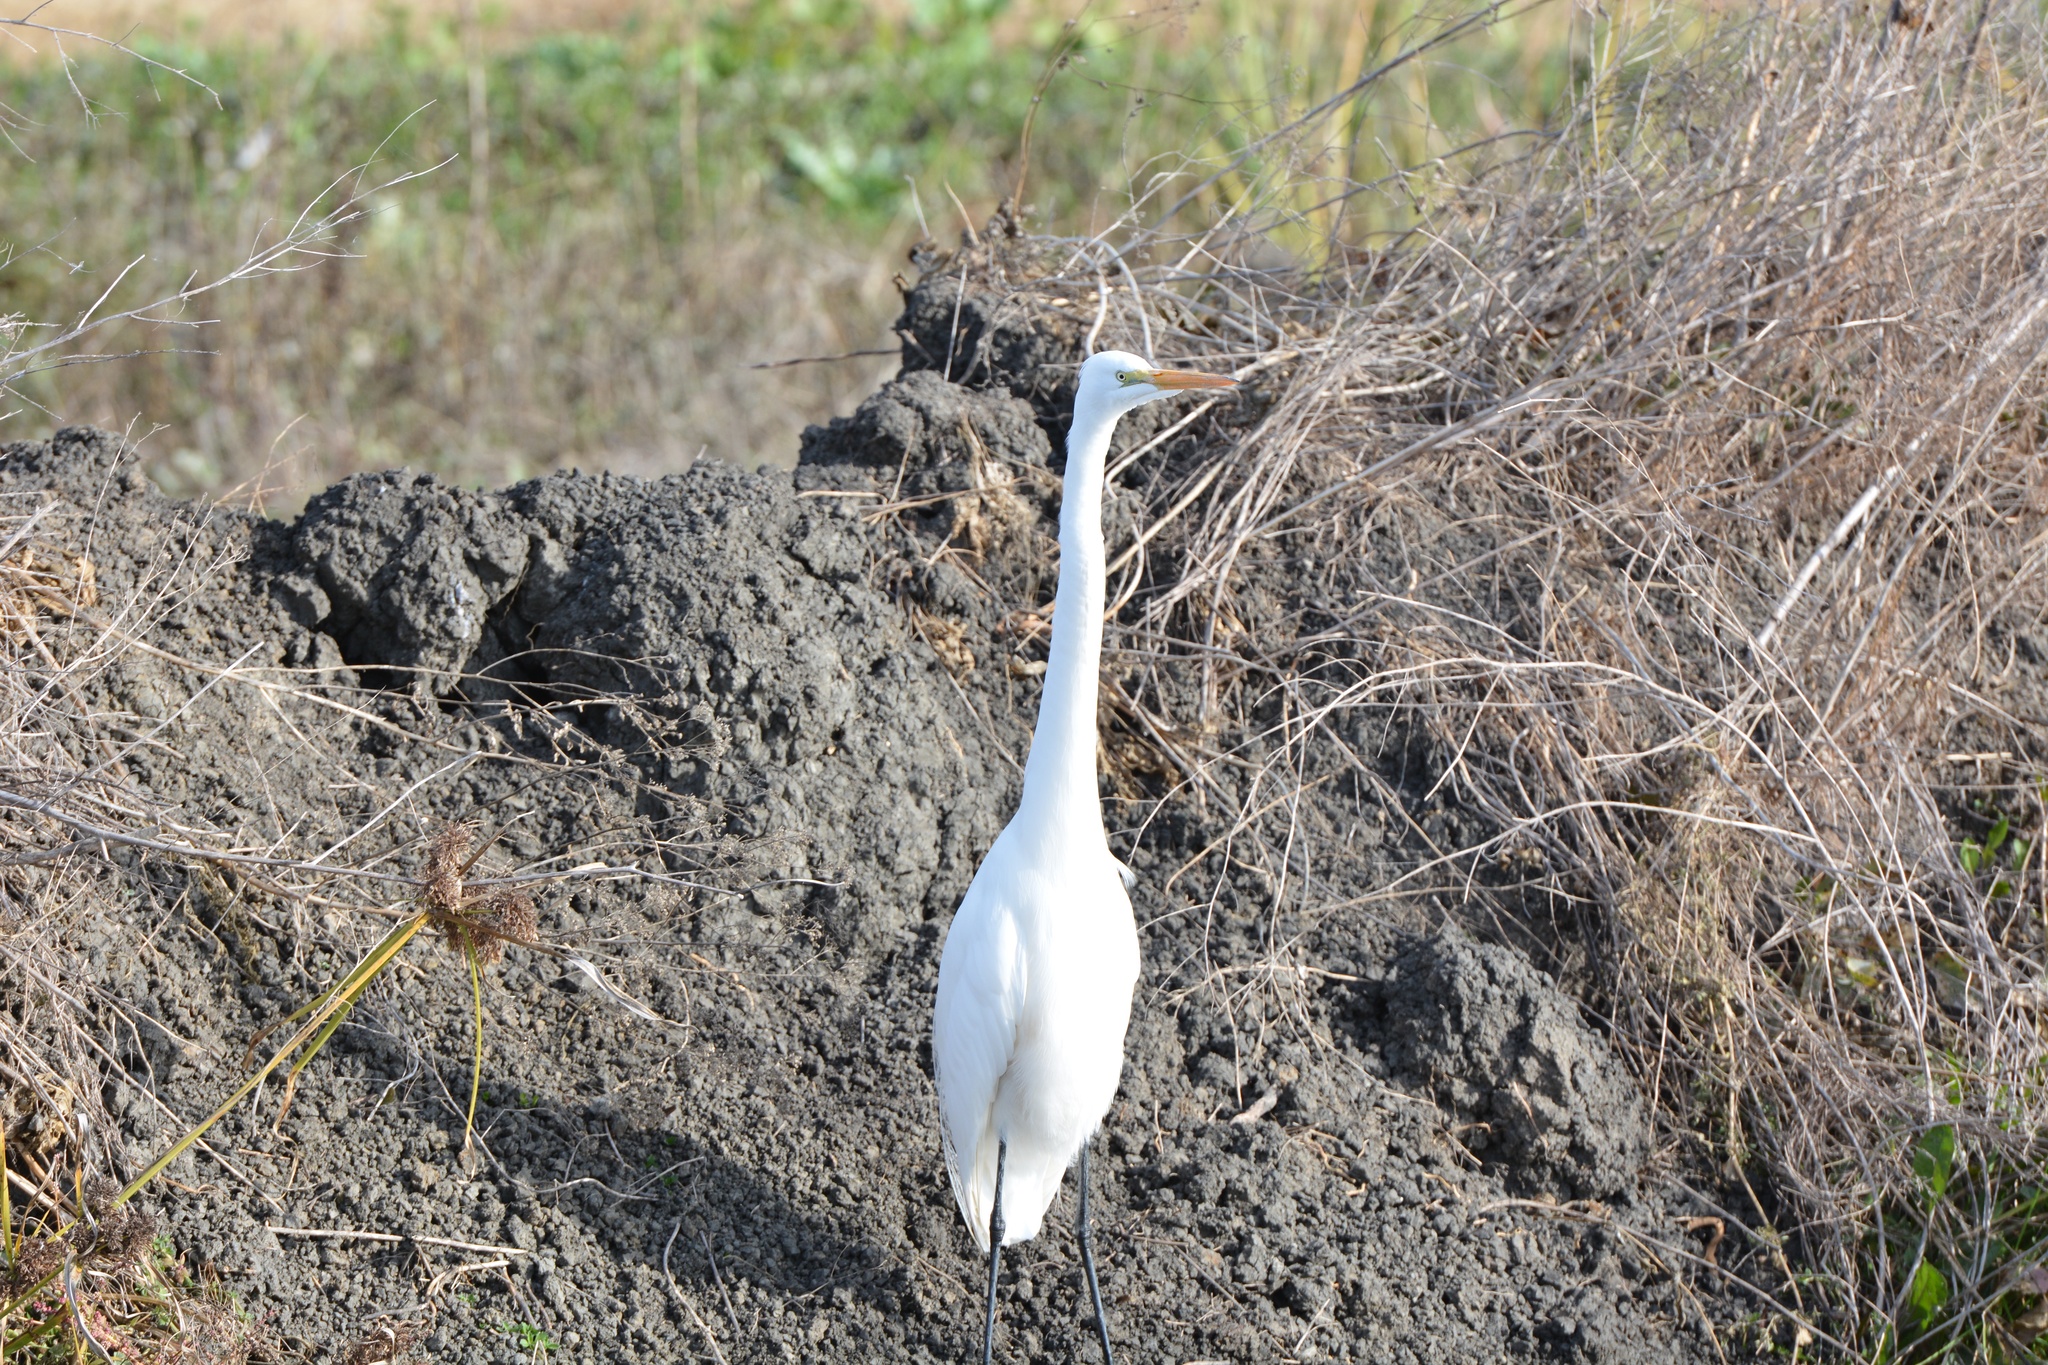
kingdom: Animalia
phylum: Chordata
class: Aves
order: Pelecaniformes
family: Ardeidae
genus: Ardea
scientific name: Ardea alba
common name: Great egret
